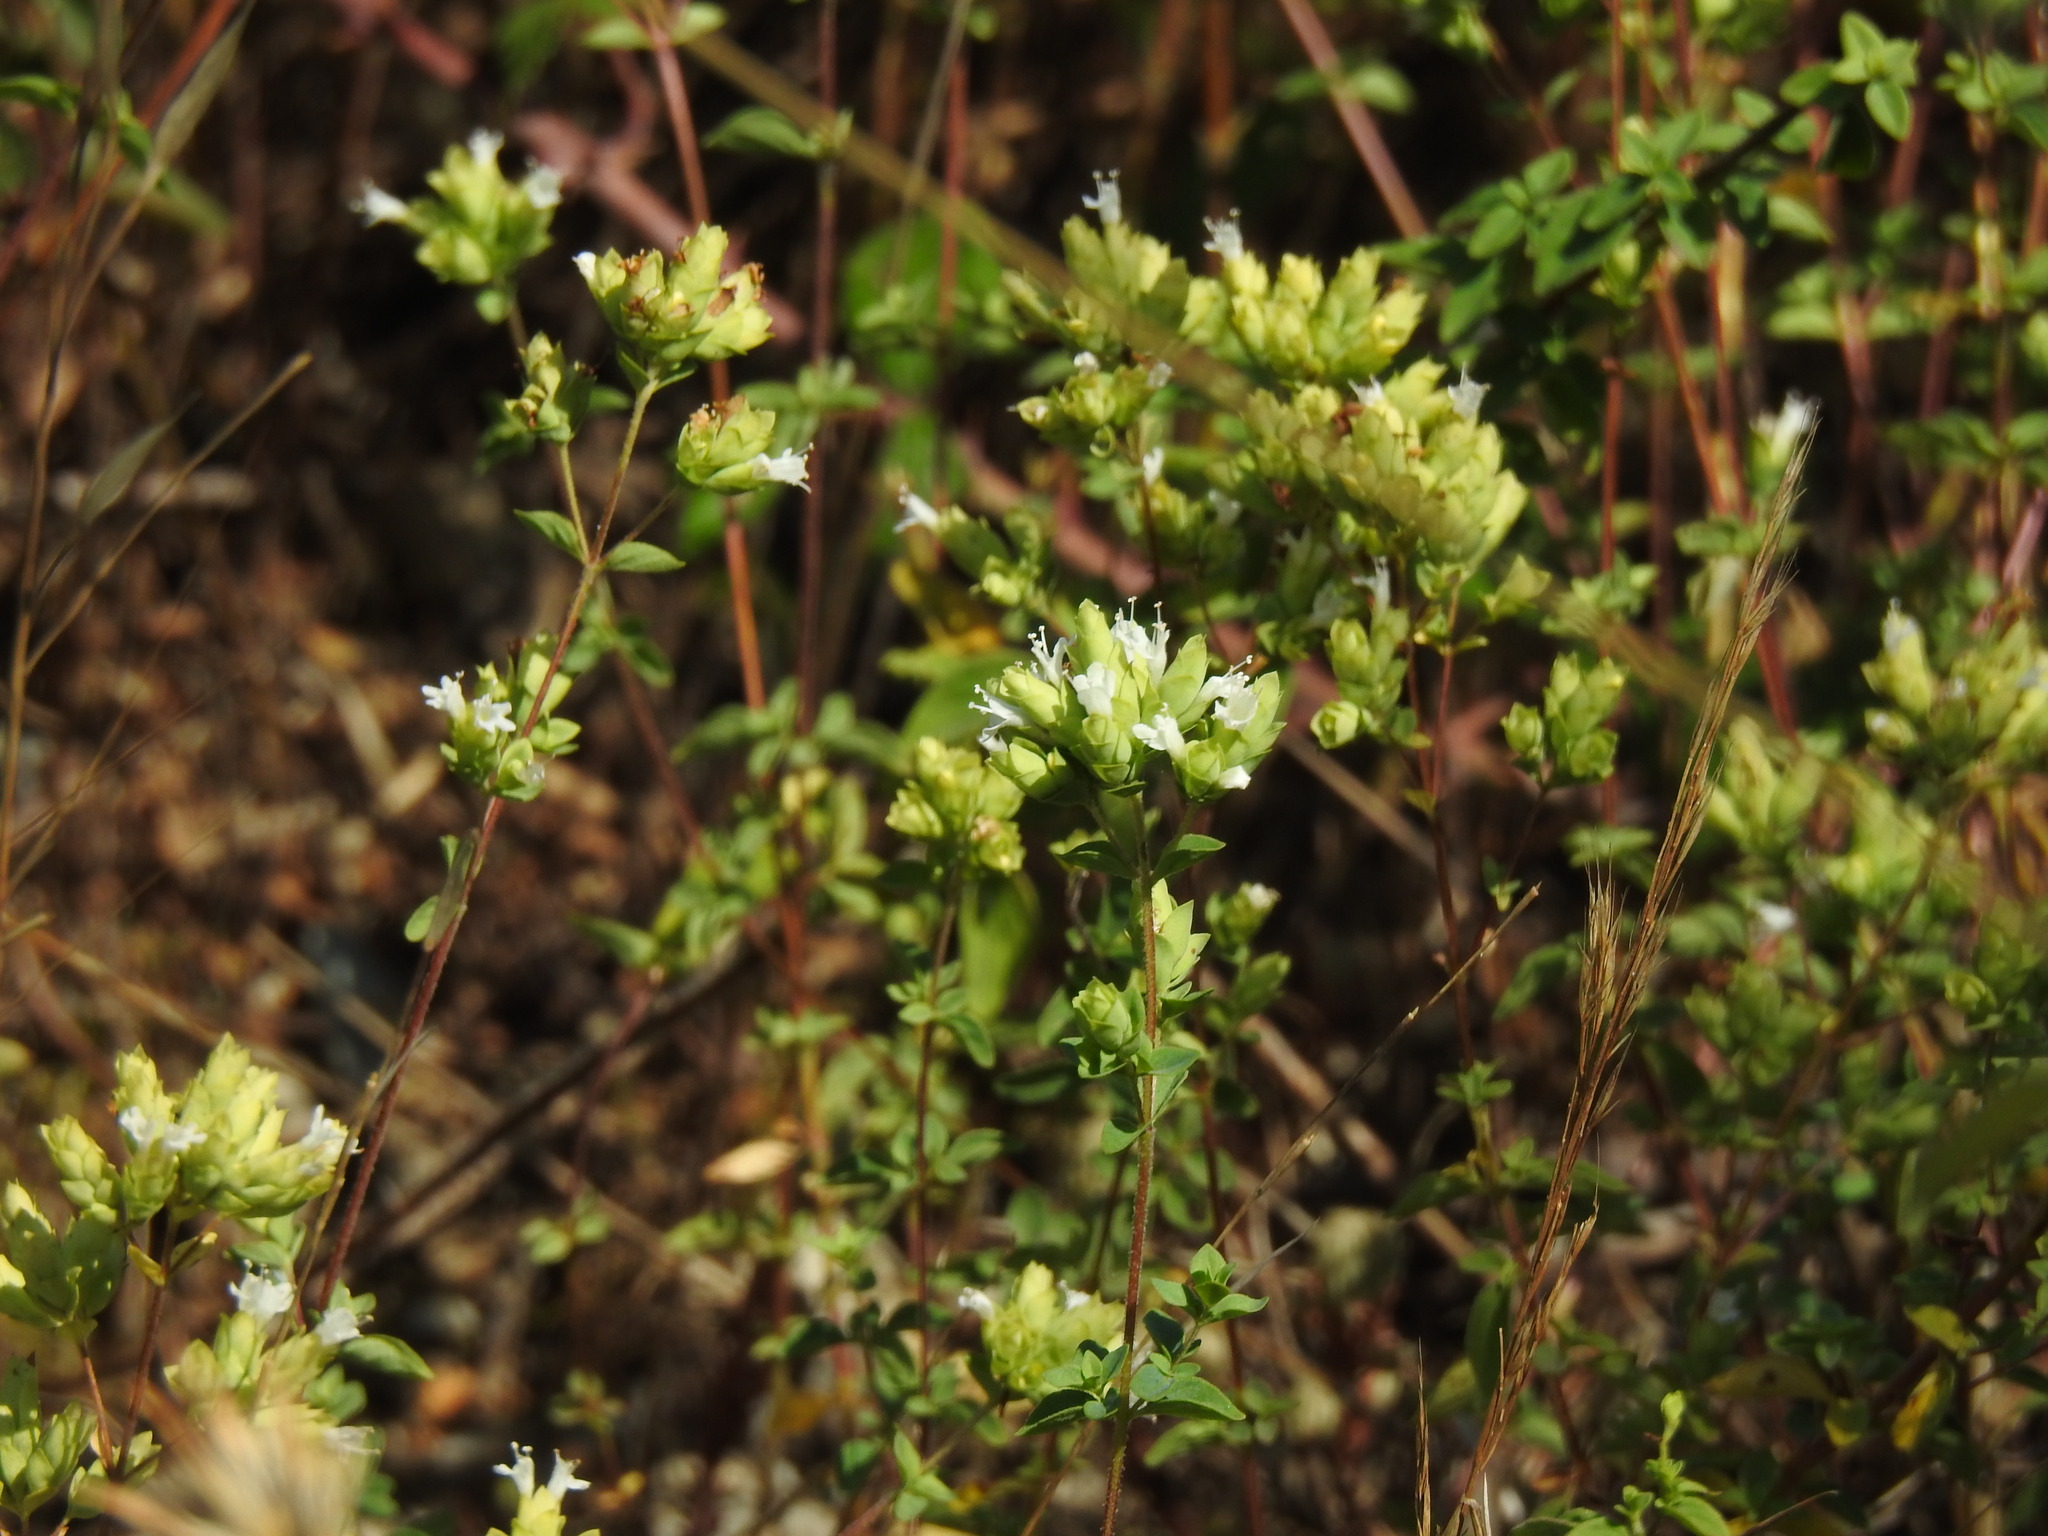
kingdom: Plantae
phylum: Tracheophyta
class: Magnoliopsida
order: Lamiales
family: Lamiaceae
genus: Origanum
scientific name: Origanum vulgare
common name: Wild marjoram
